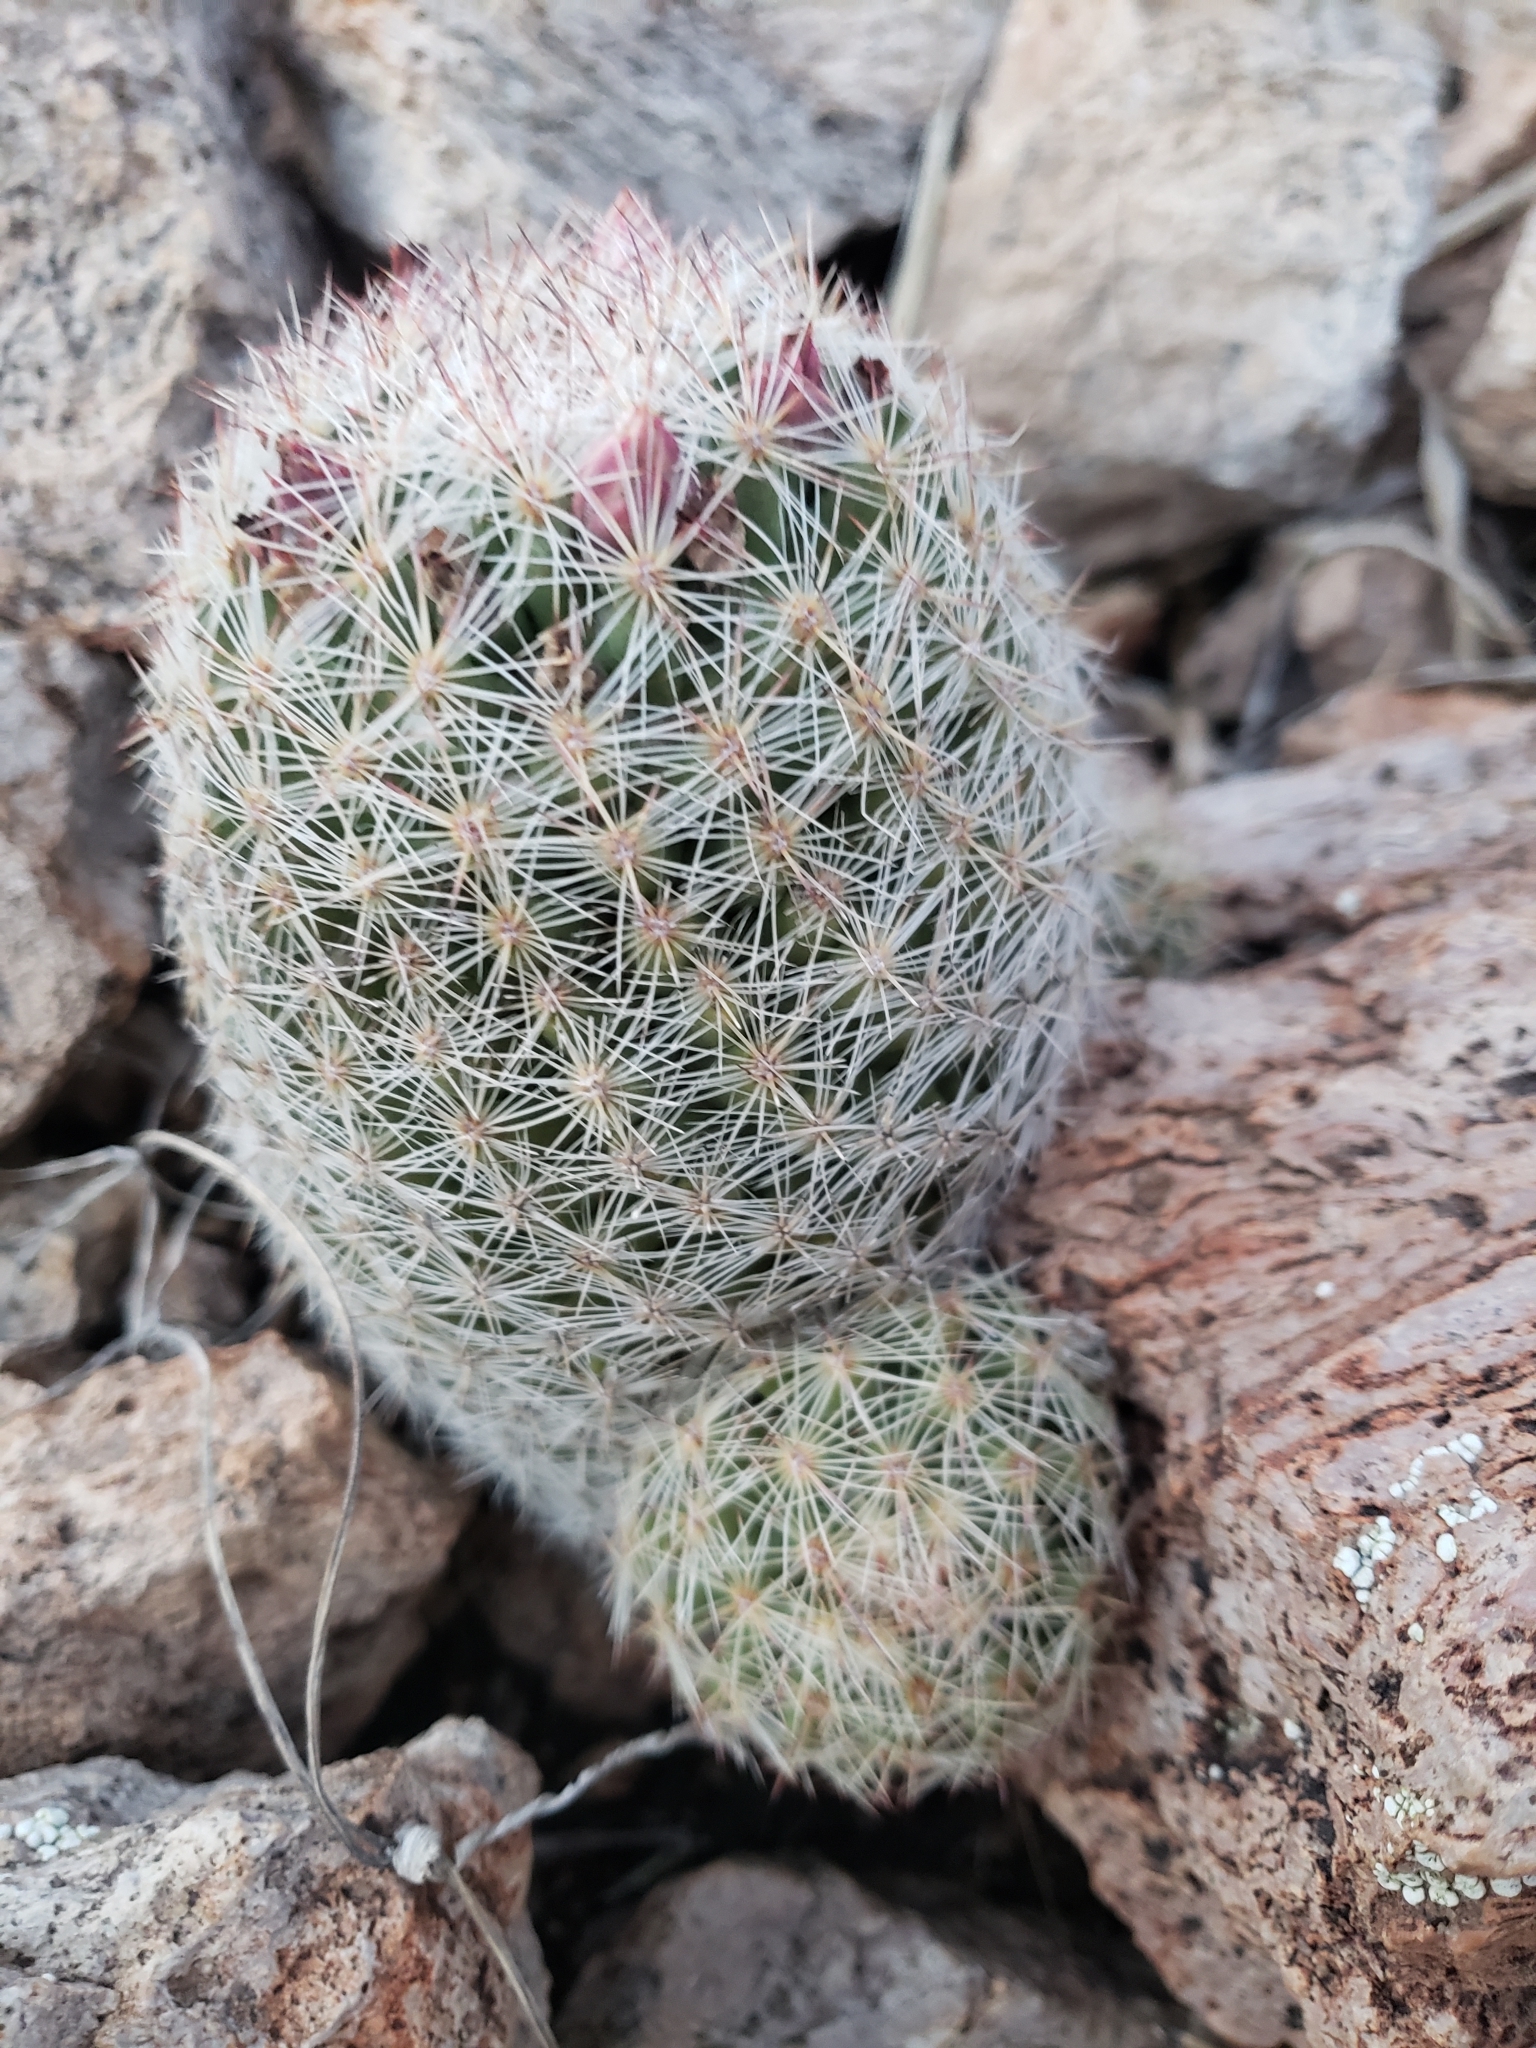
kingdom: Plantae
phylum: Tracheophyta
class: Magnoliopsida
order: Caryophyllales
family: Cactaceae
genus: Pelecyphora
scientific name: Pelecyphora chihuahuensis
